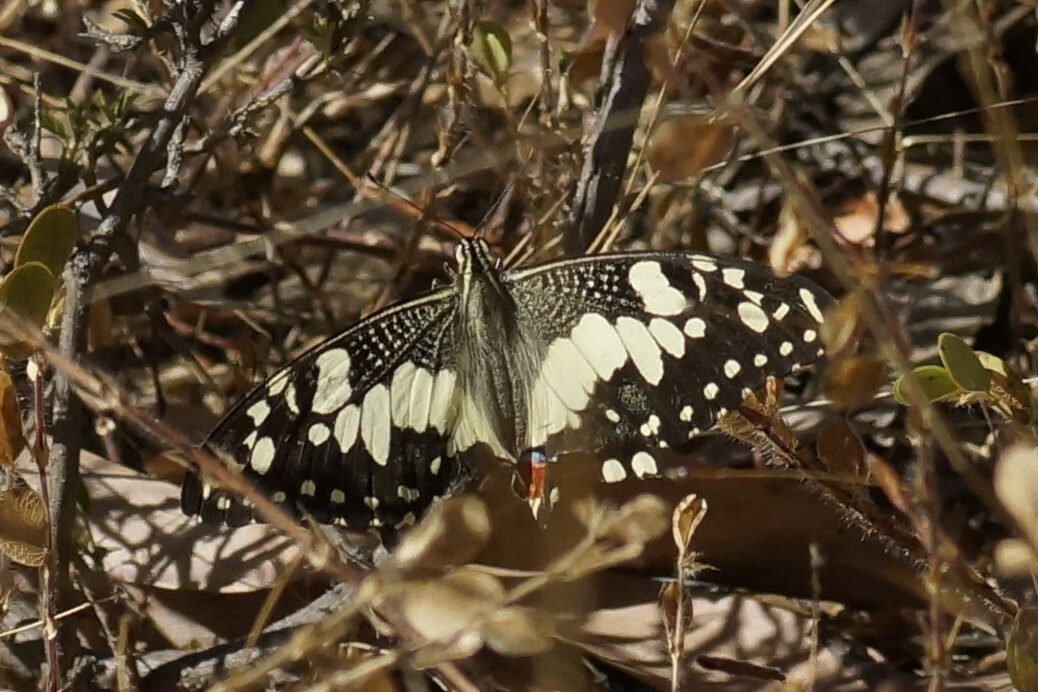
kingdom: Animalia
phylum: Arthropoda
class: Insecta
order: Lepidoptera
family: Papilionidae
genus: Papilio
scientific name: Papilio demoleus
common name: Lime butterfly
